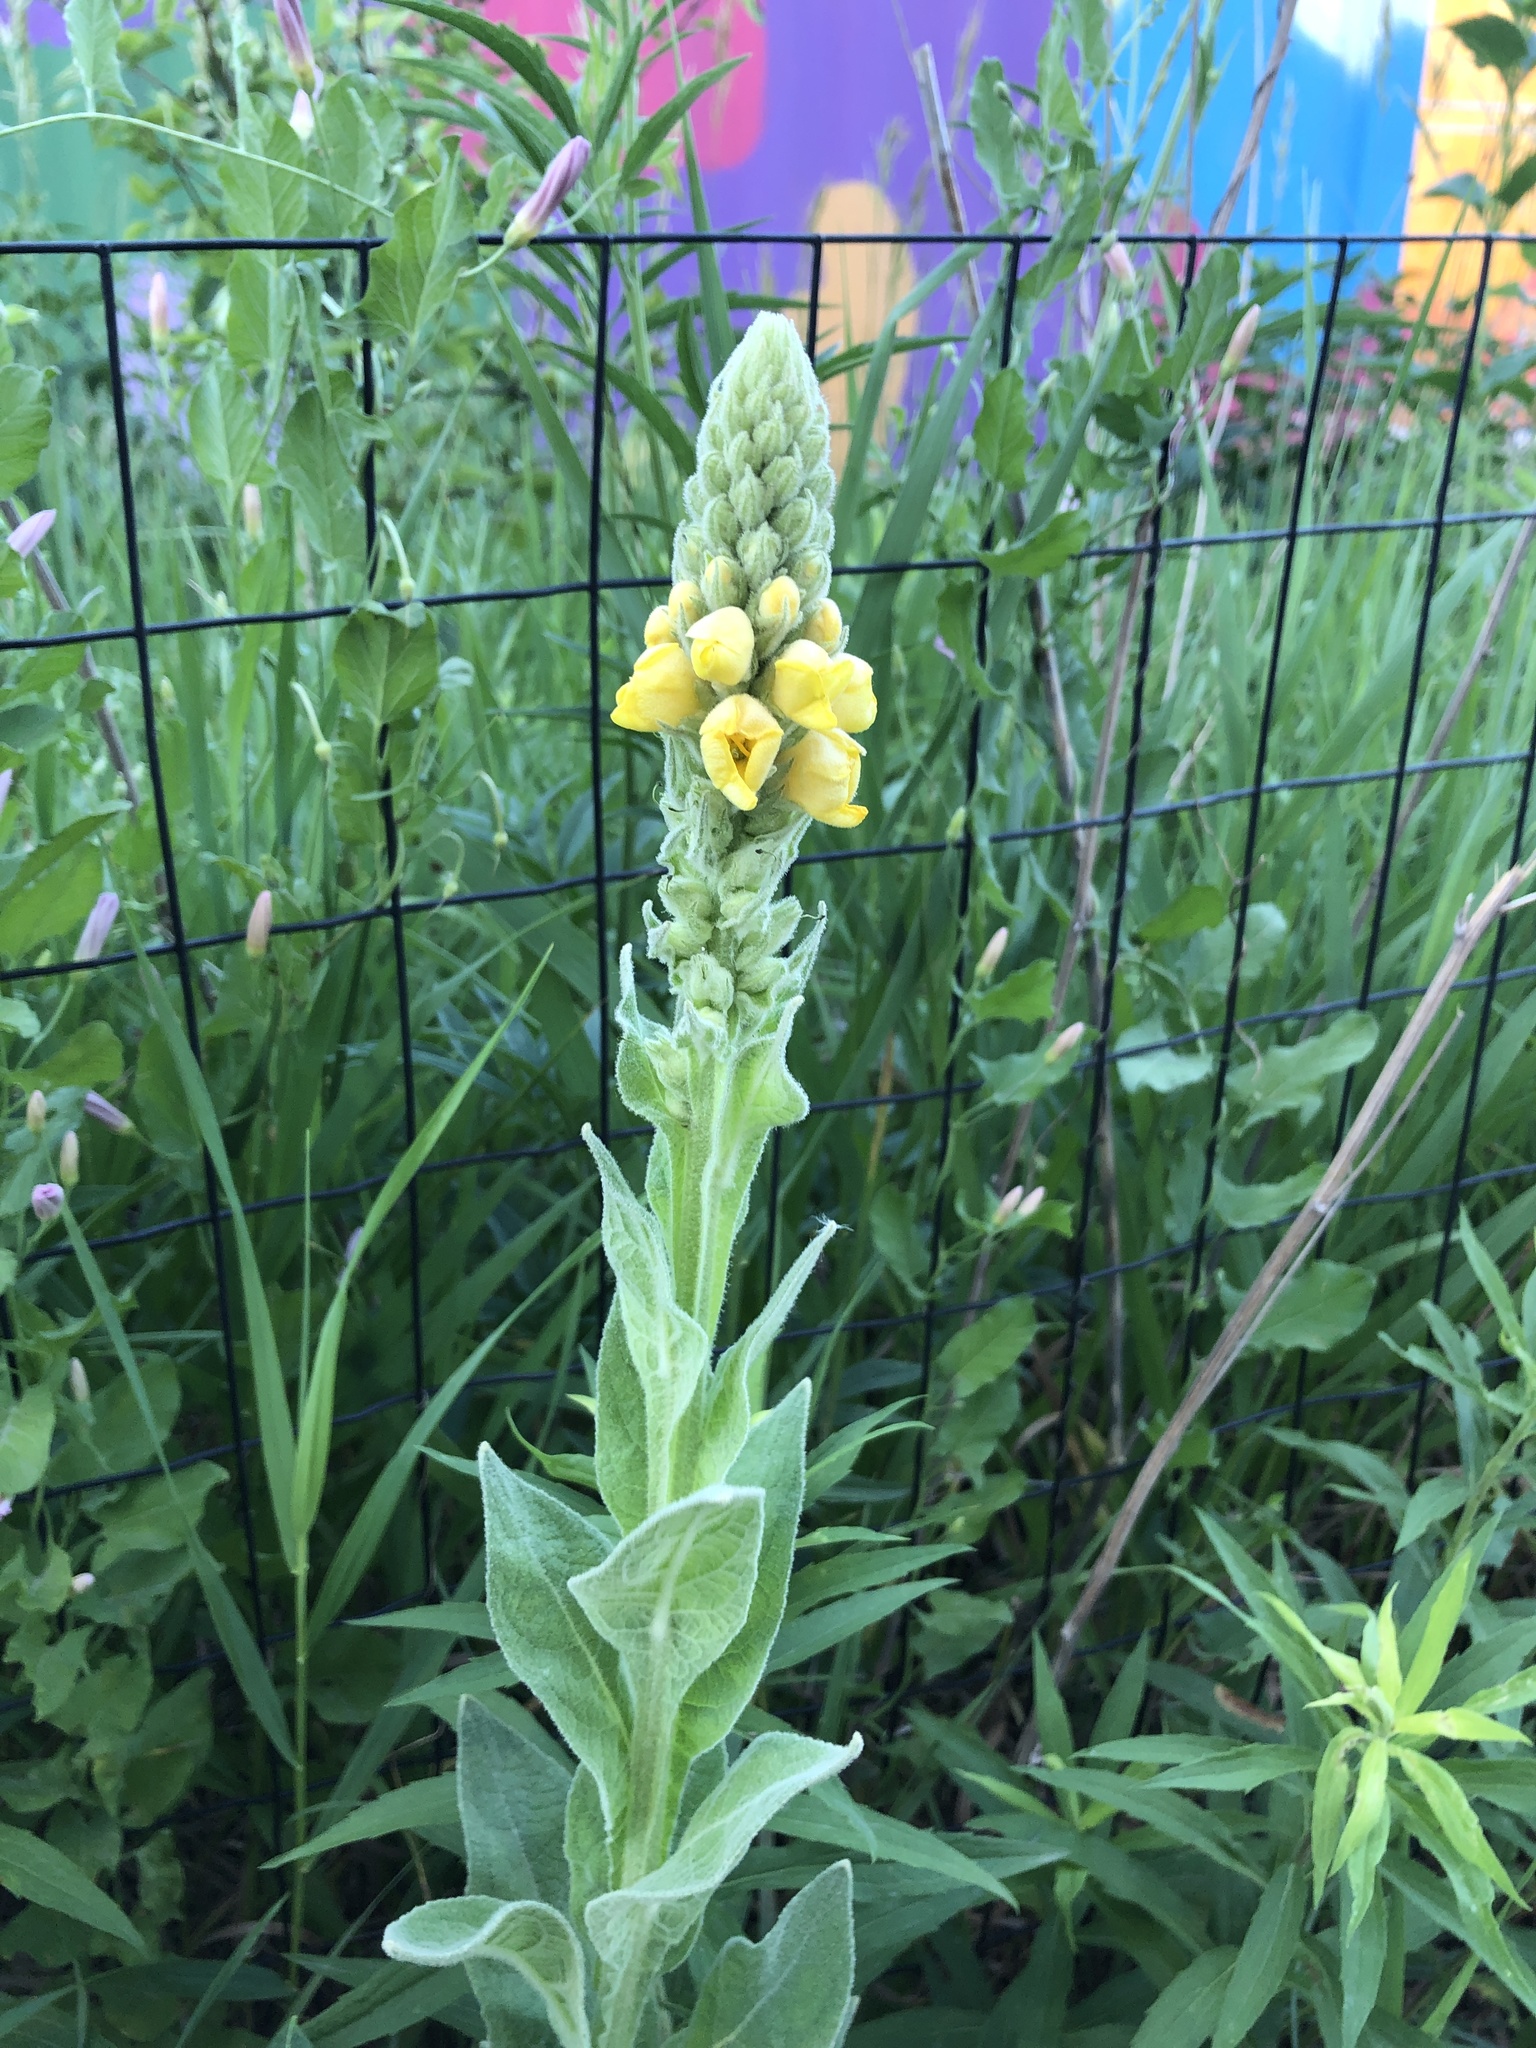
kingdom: Plantae
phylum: Tracheophyta
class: Magnoliopsida
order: Lamiales
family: Scrophulariaceae
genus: Verbascum
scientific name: Verbascum thapsus
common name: Common mullein
